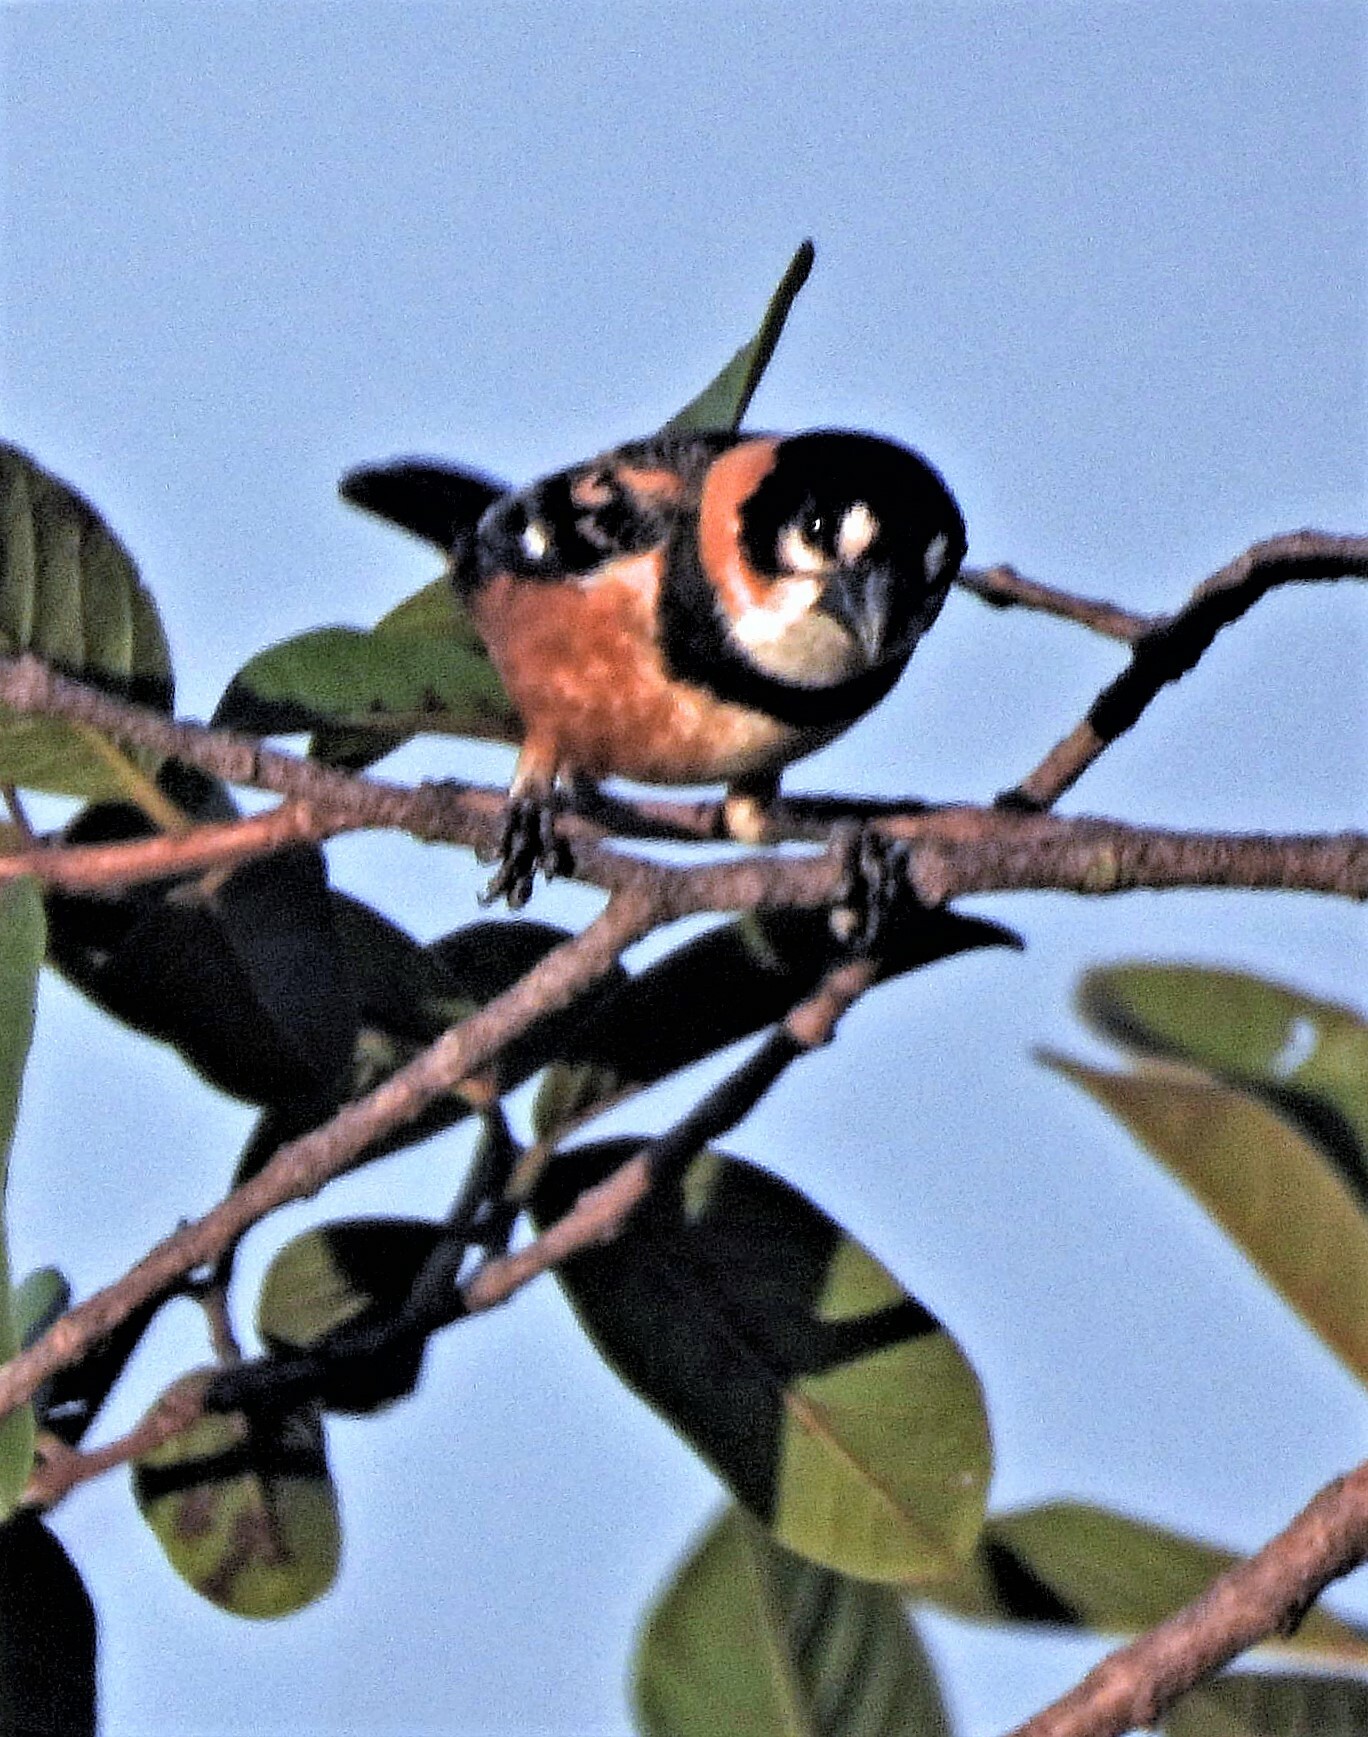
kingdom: Animalia
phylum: Chordata
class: Aves
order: Passeriformes
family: Thraupidae
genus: Sporophila
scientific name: Sporophila collaris
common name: Rusty-collared seedeater
